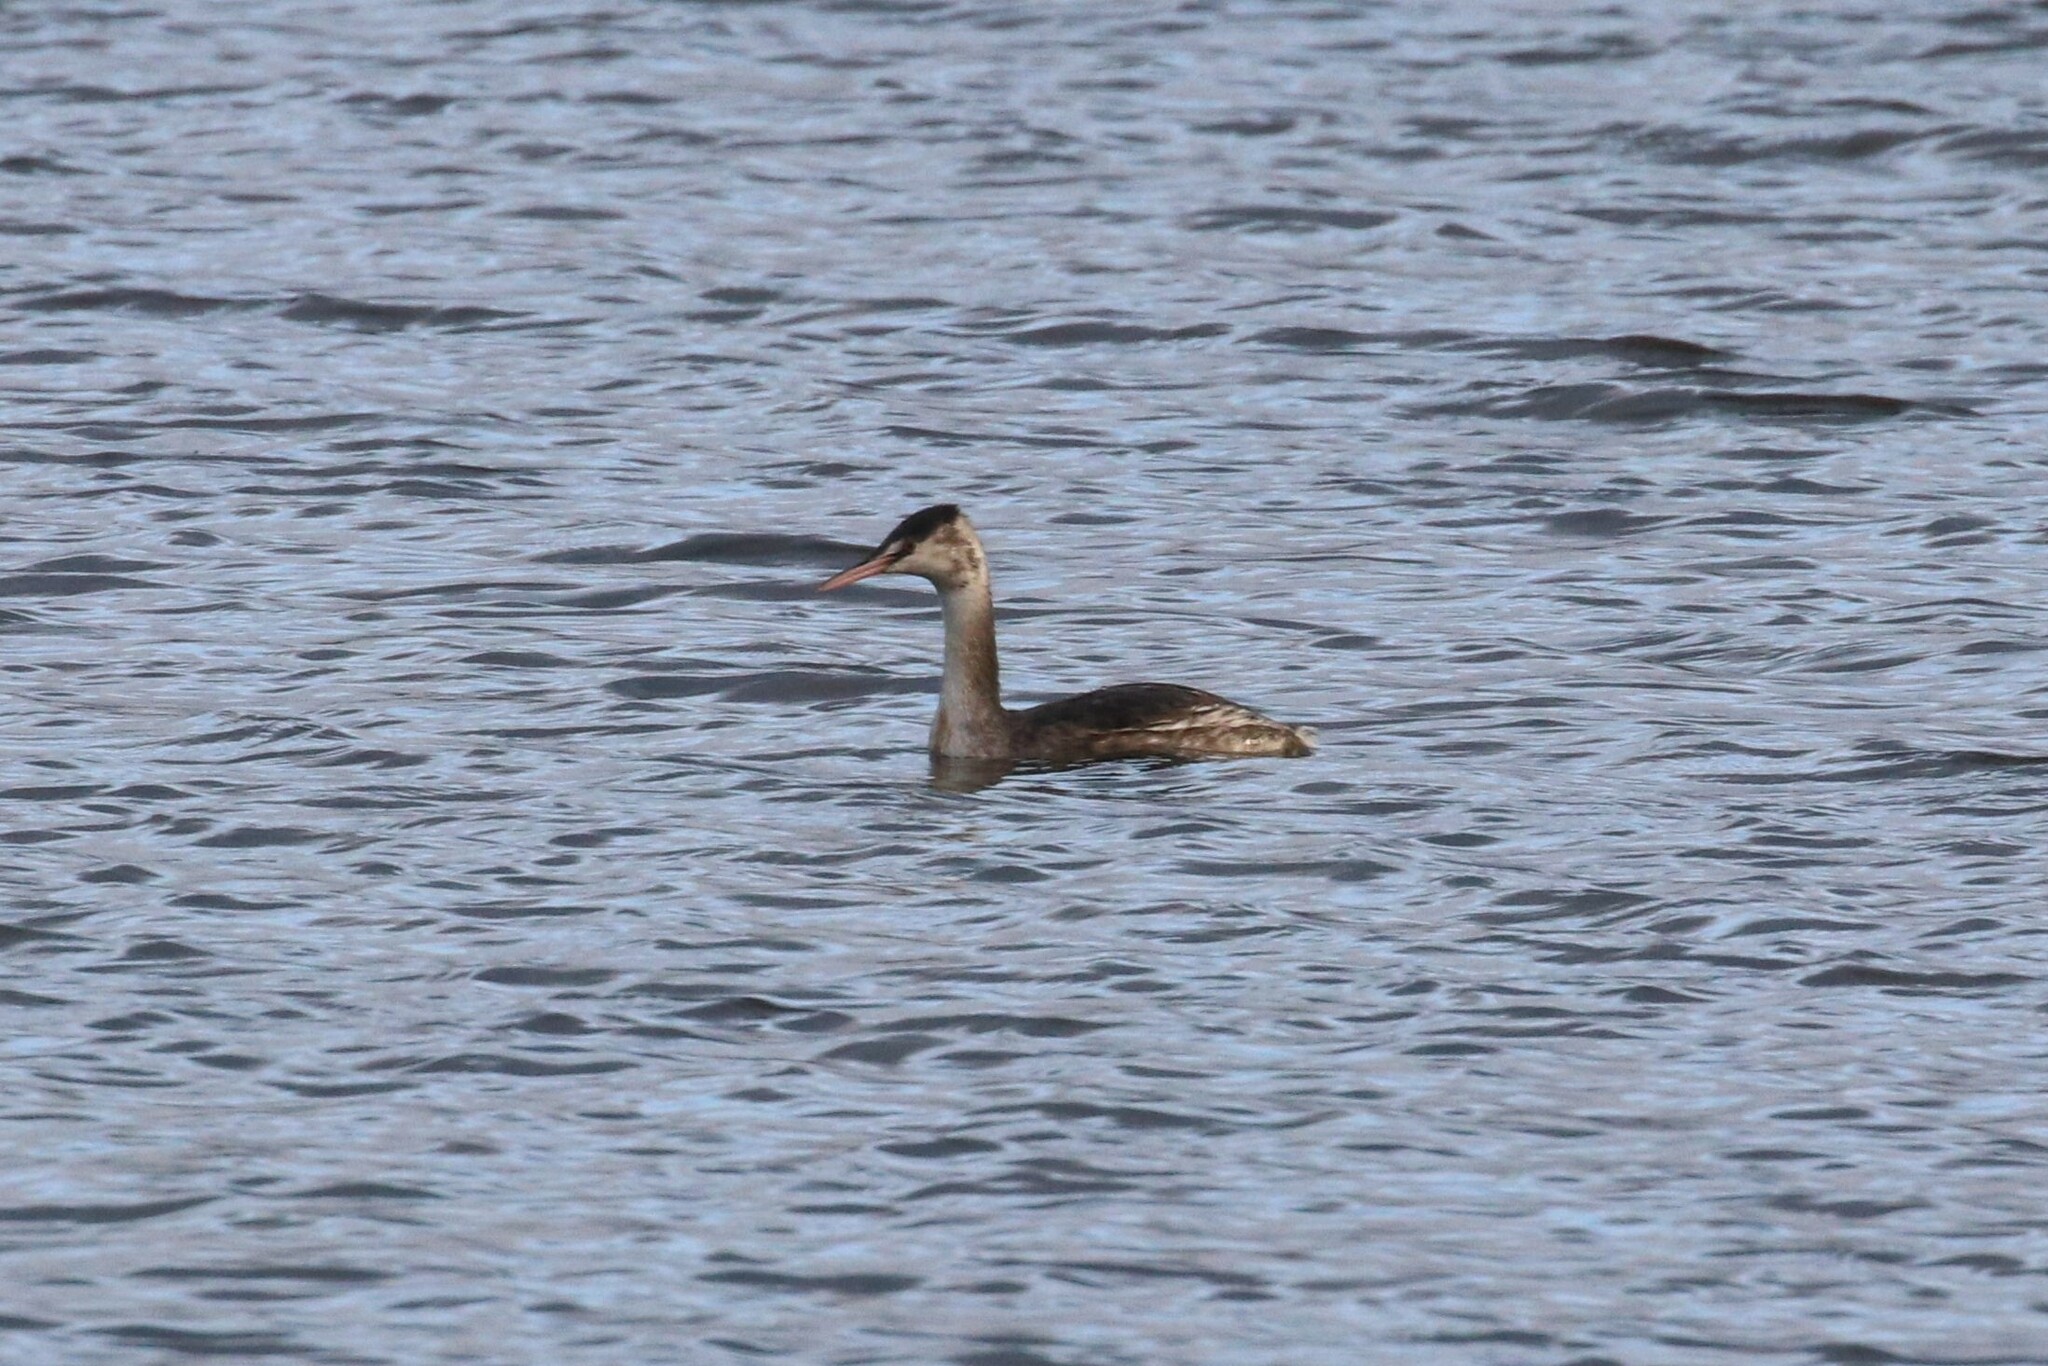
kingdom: Animalia
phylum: Chordata
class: Aves
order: Podicipediformes
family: Podicipedidae
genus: Podiceps
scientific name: Podiceps cristatus
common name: Great crested grebe
